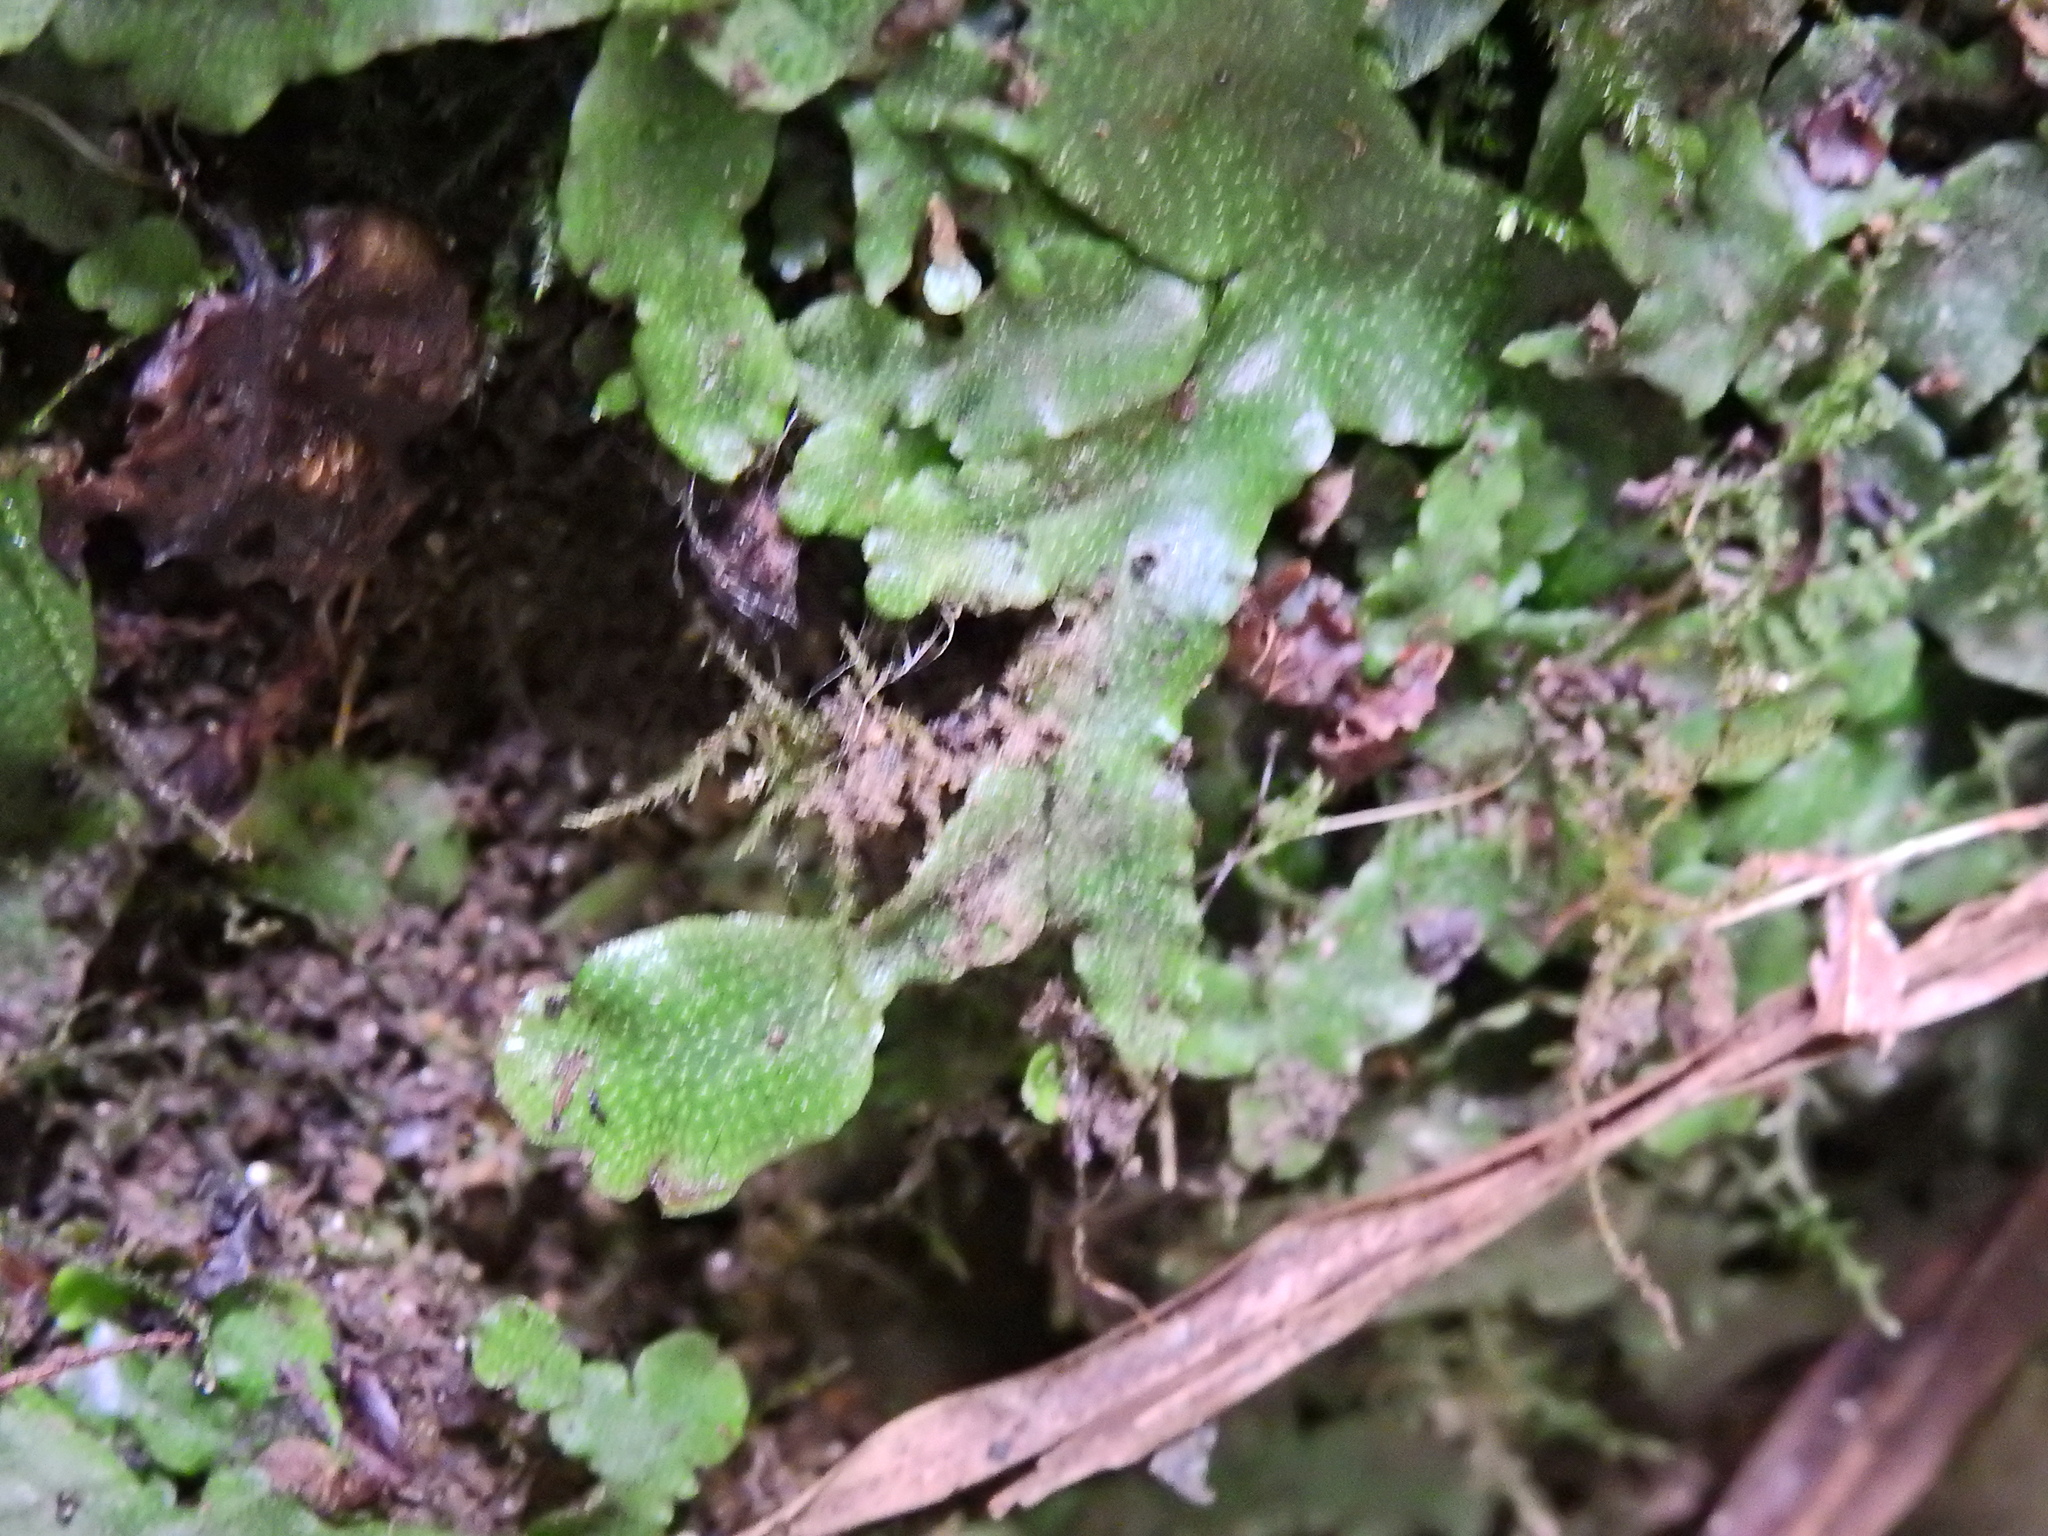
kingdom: Plantae
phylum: Marchantiophyta
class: Marchantiopsida
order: Marchantiales
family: Conocephalaceae
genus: Conocephalum
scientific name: Conocephalum conicum
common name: Great scented liverwort
